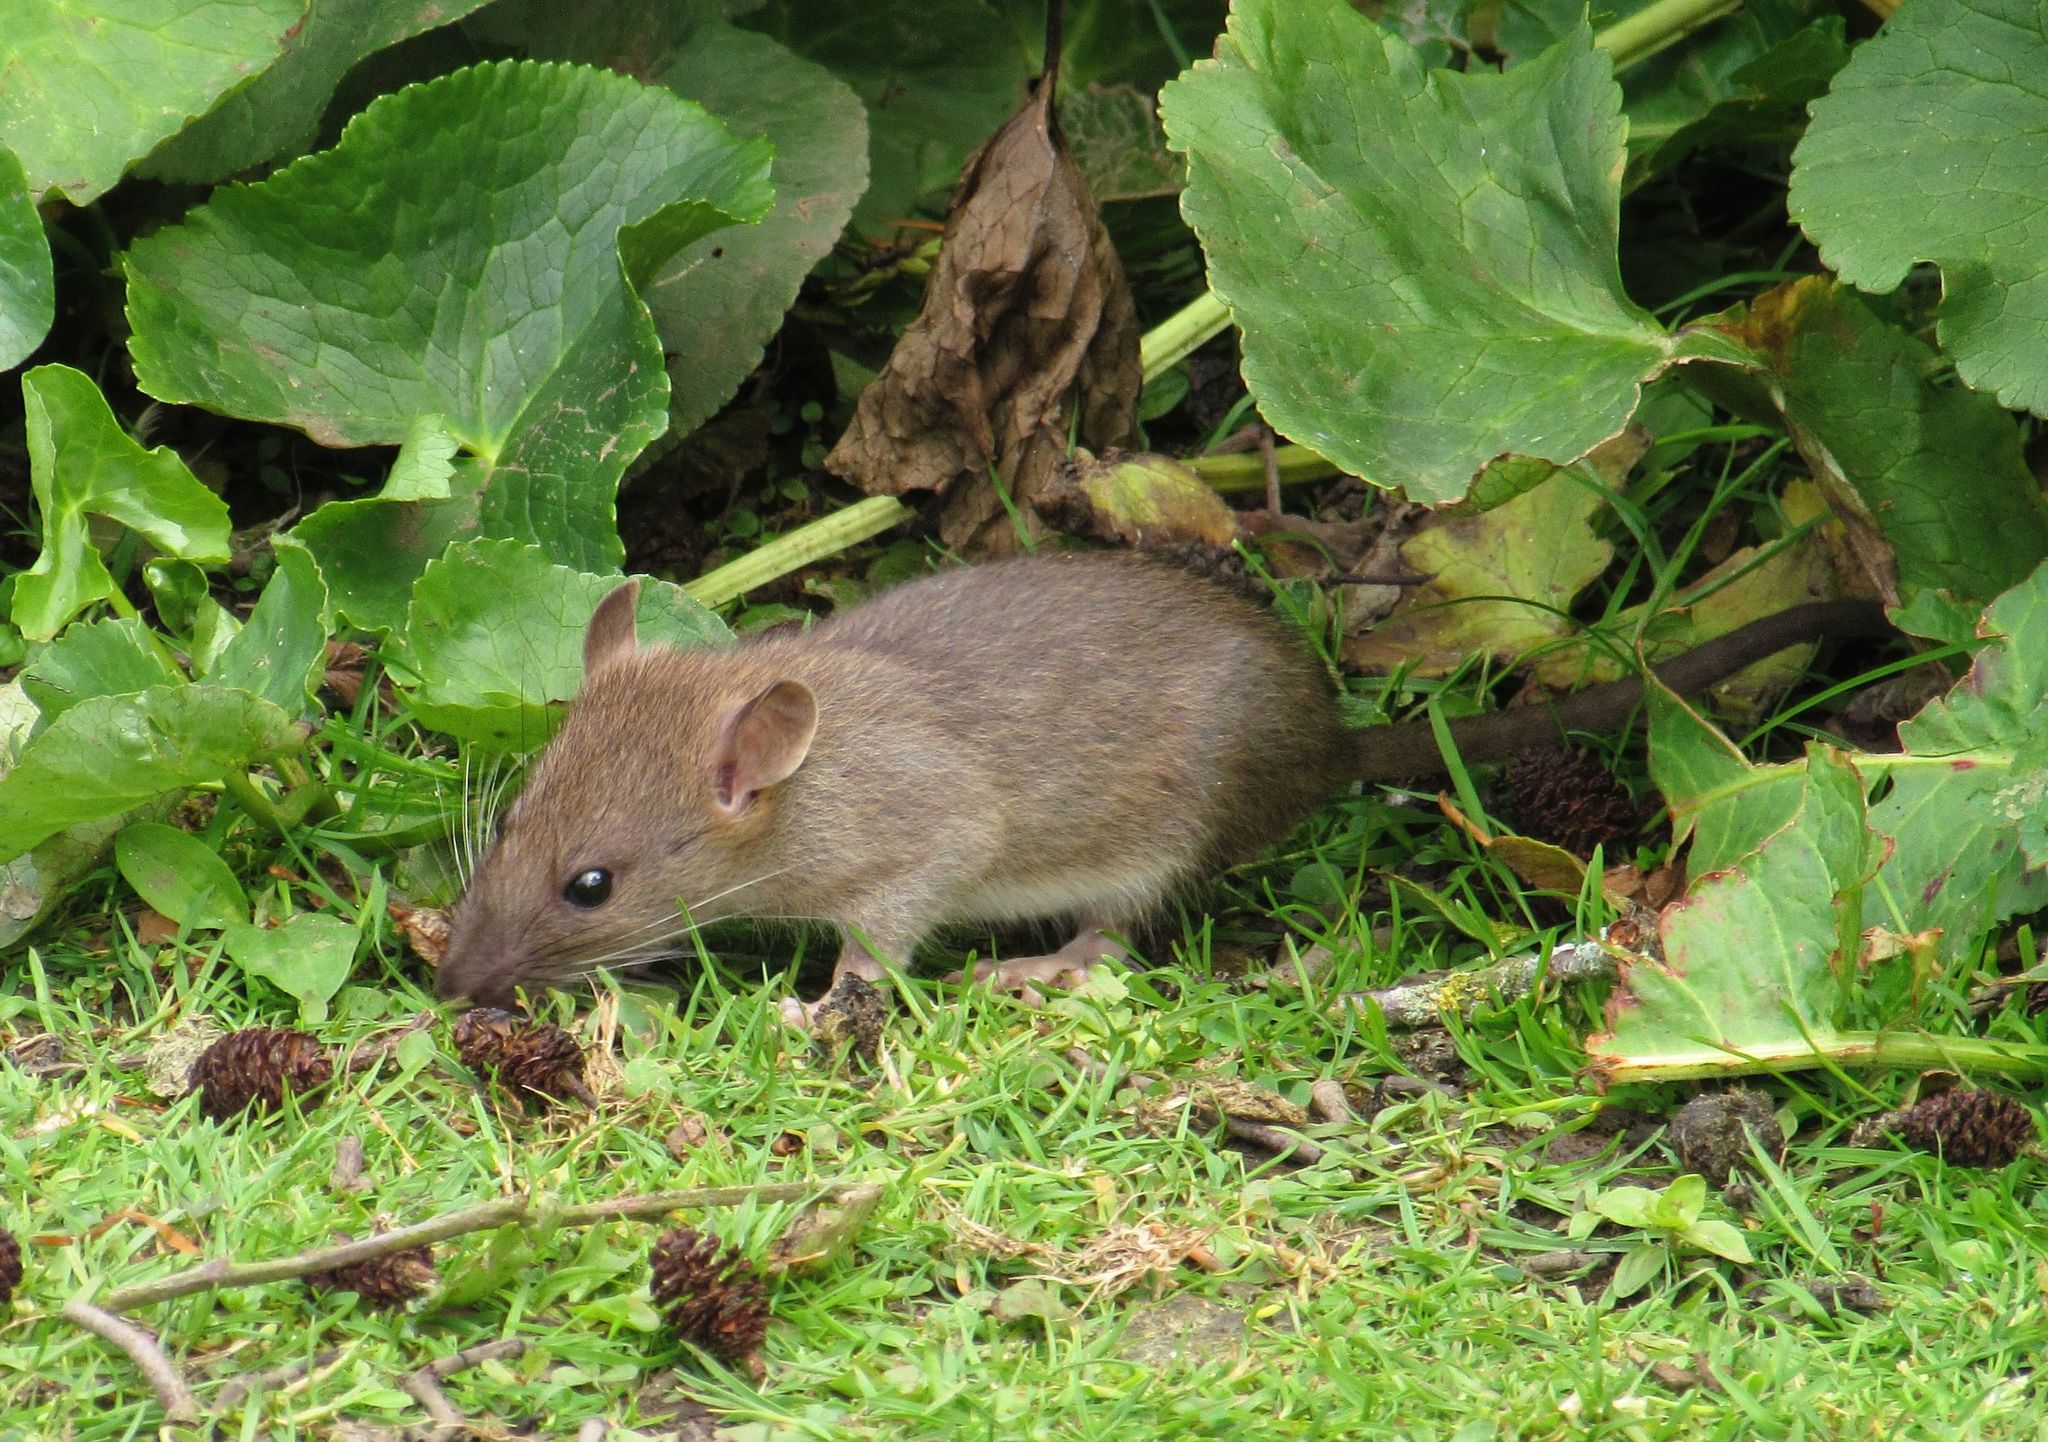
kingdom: Animalia
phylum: Chordata
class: Mammalia
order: Rodentia
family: Muridae
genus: Rattus
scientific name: Rattus norvegicus
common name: Brown rat
